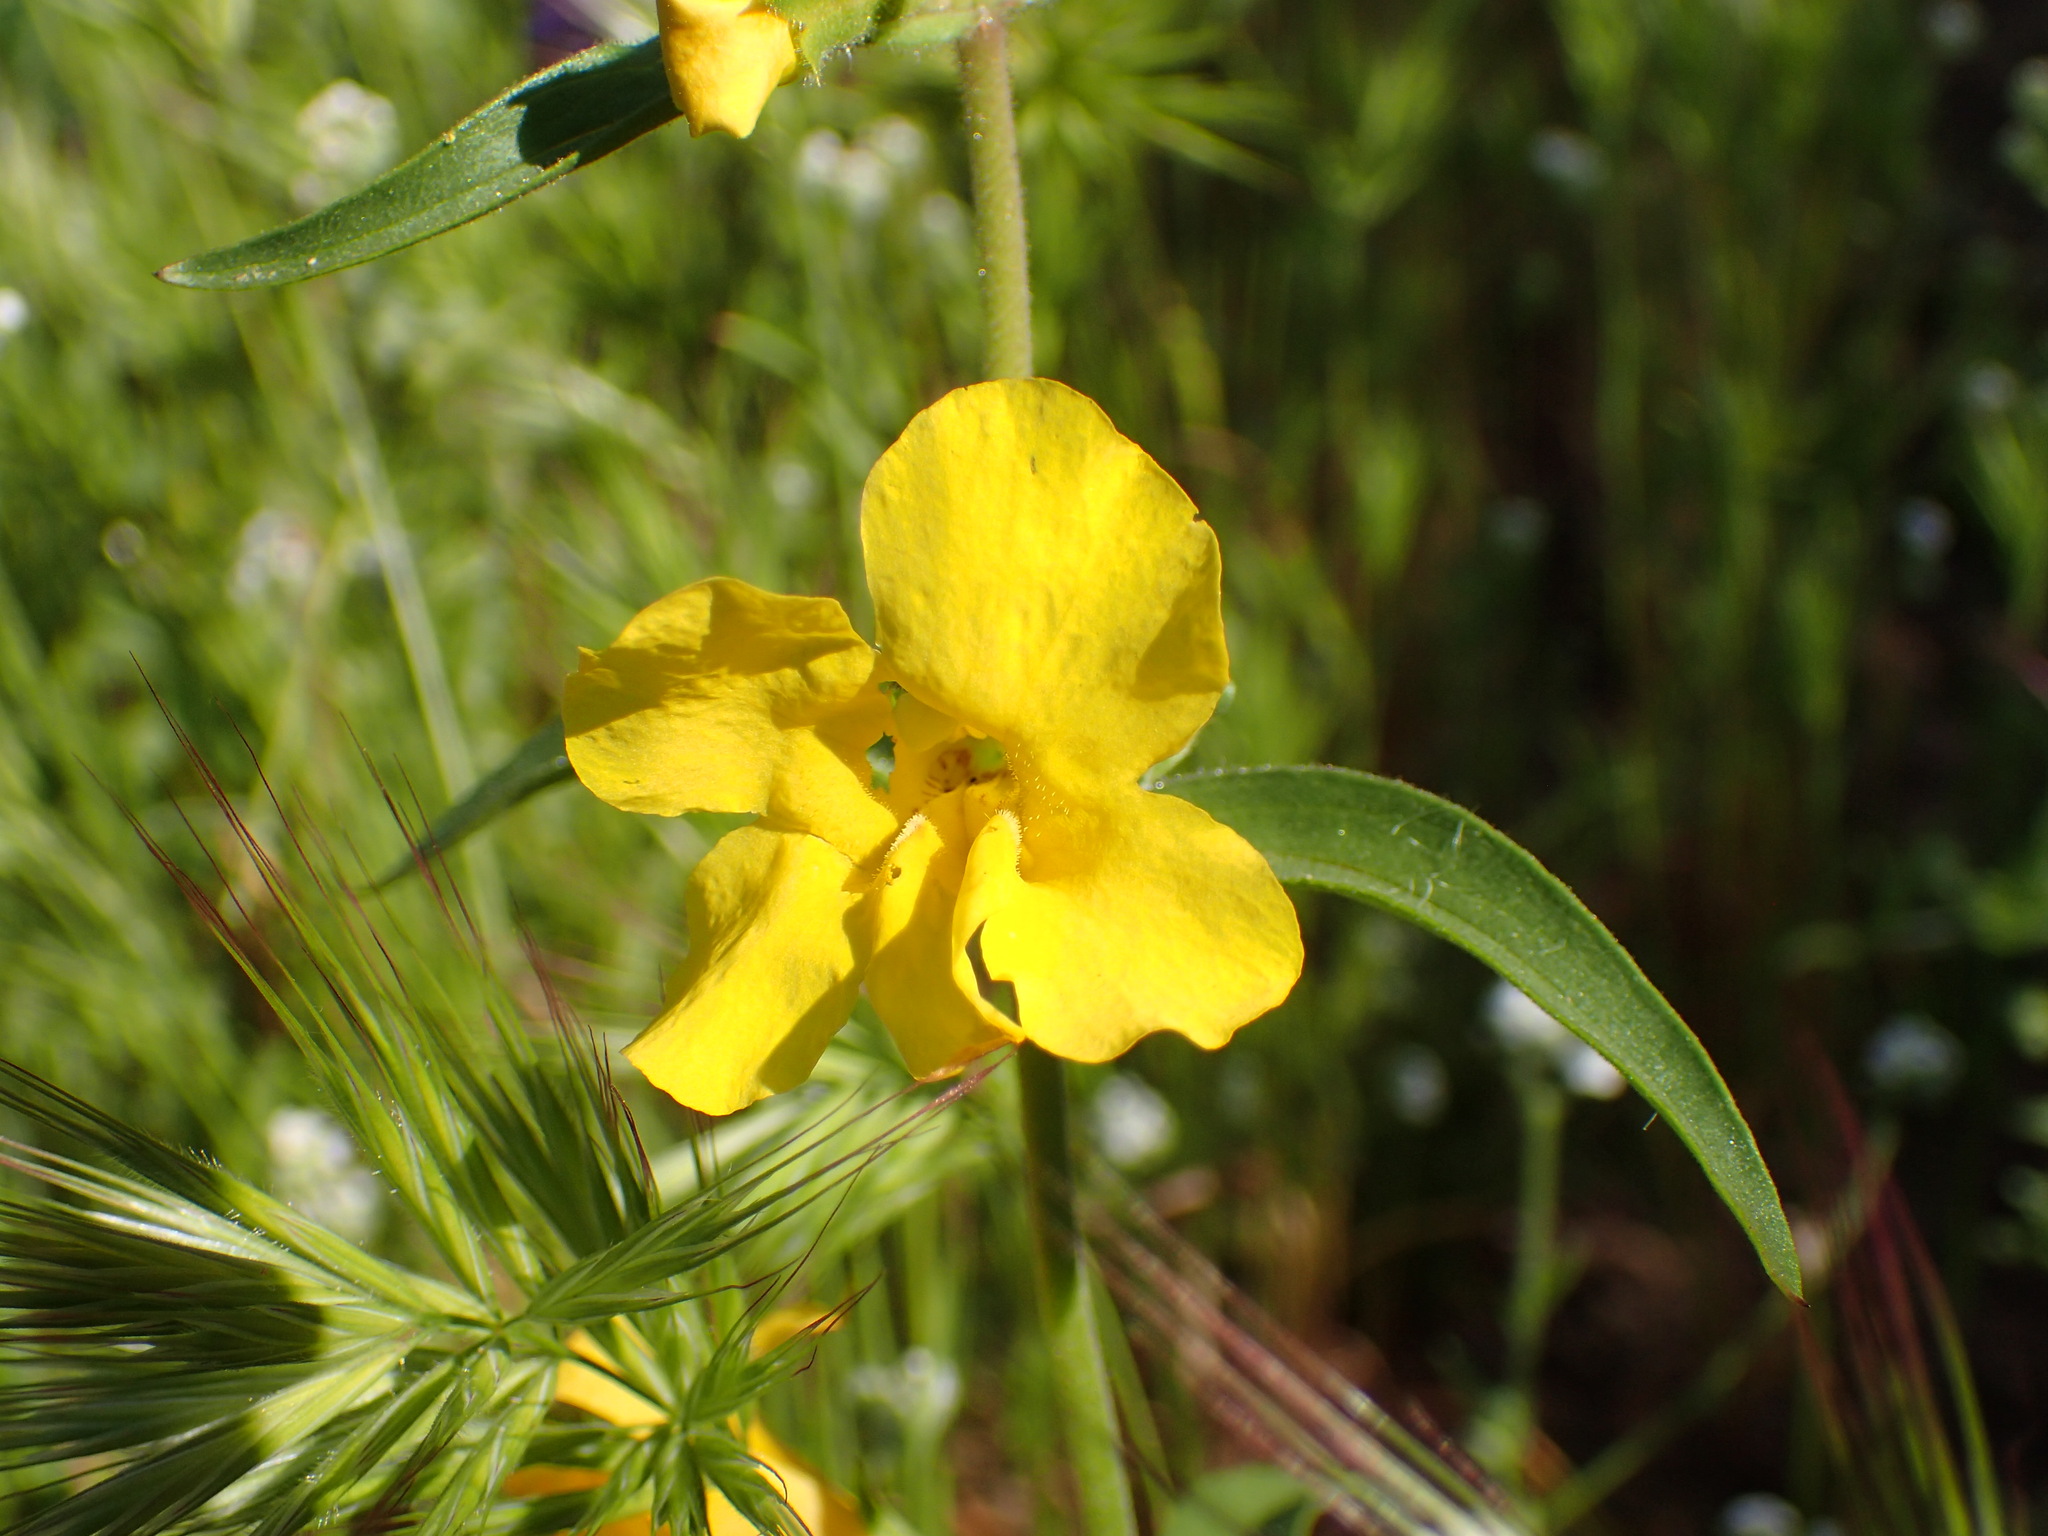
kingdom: Plantae
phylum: Tracheophyta
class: Magnoliopsida
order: Lamiales
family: Phrymaceae
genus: Diplacus
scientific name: Diplacus brevipes
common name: Wide-throat yellow monkey-flower
